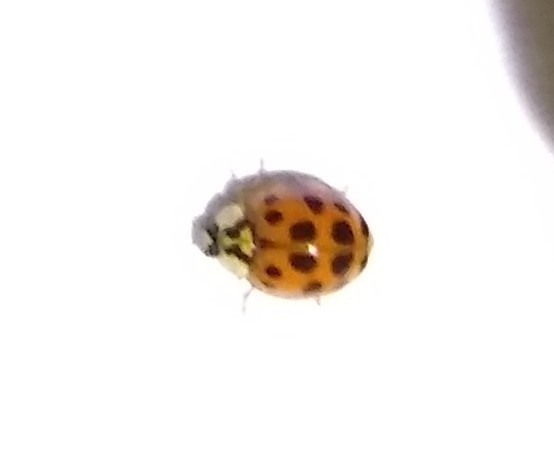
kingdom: Animalia
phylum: Arthropoda
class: Insecta
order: Coleoptera
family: Coccinellidae
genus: Harmonia
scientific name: Harmonia axyridis
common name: Harlequin ladybird
